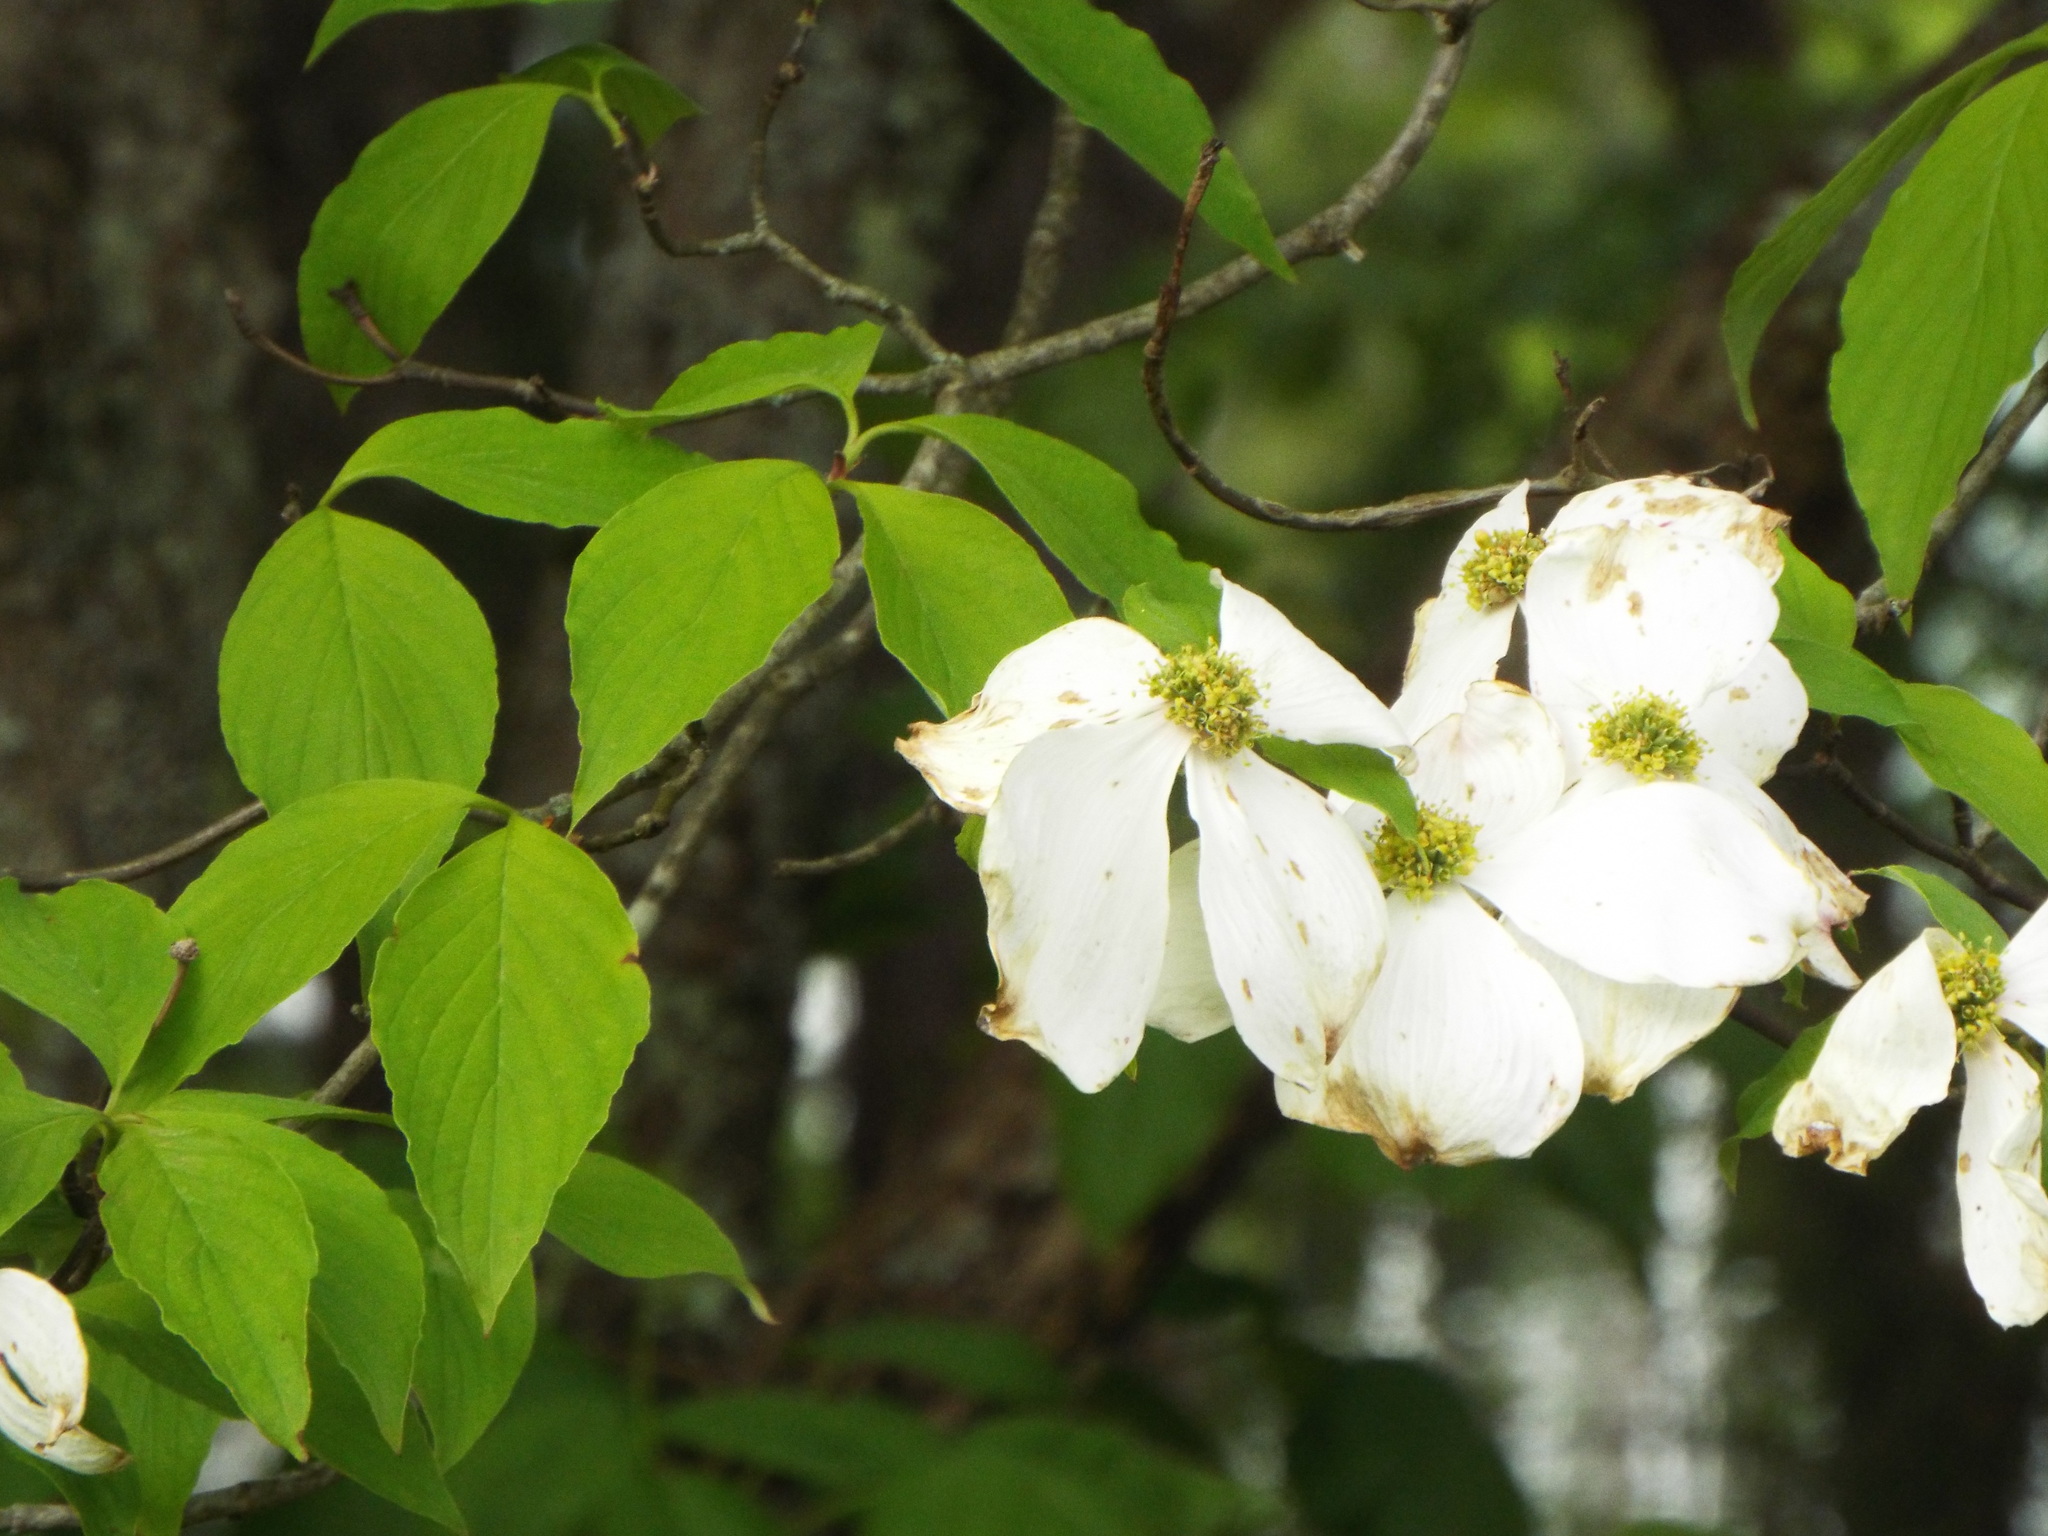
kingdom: Plantae
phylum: Tracheophyta
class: Magnoliopsida
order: Cornales
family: Cornaceae
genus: Cornus
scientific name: Cornus florida
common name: Flowering dogwood
